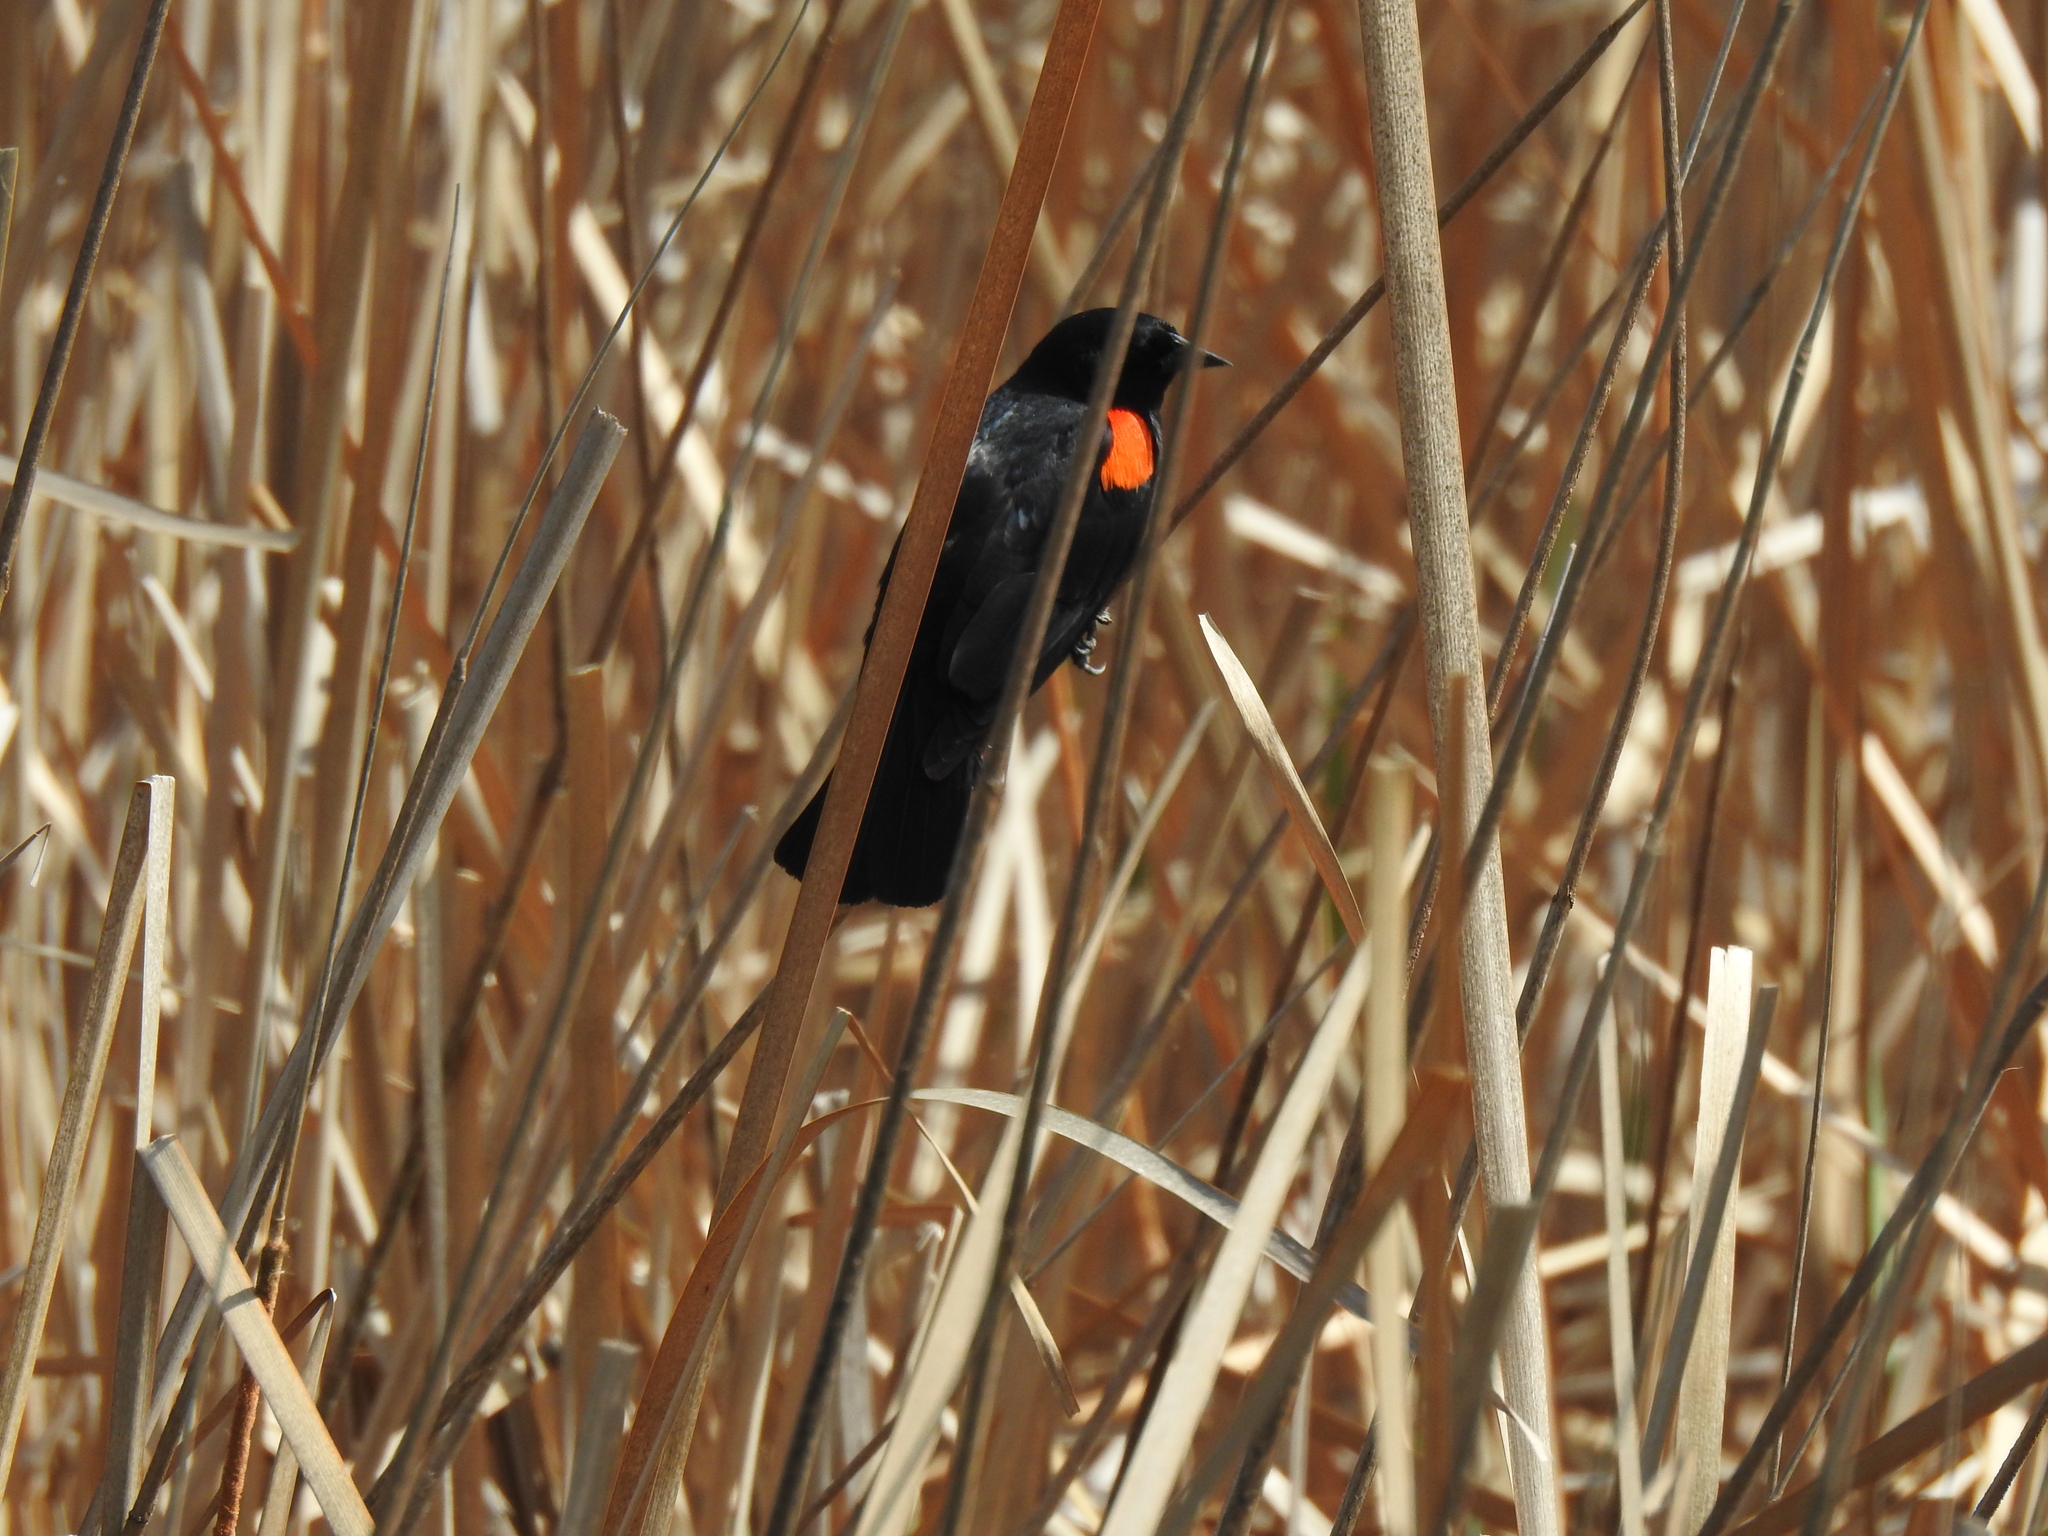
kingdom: Animalia
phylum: Chordata
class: Aves
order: Passeriformes
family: Icteridae
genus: Agelaius
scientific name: Agelaius phoeniceus
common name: Red-winged blackbird
